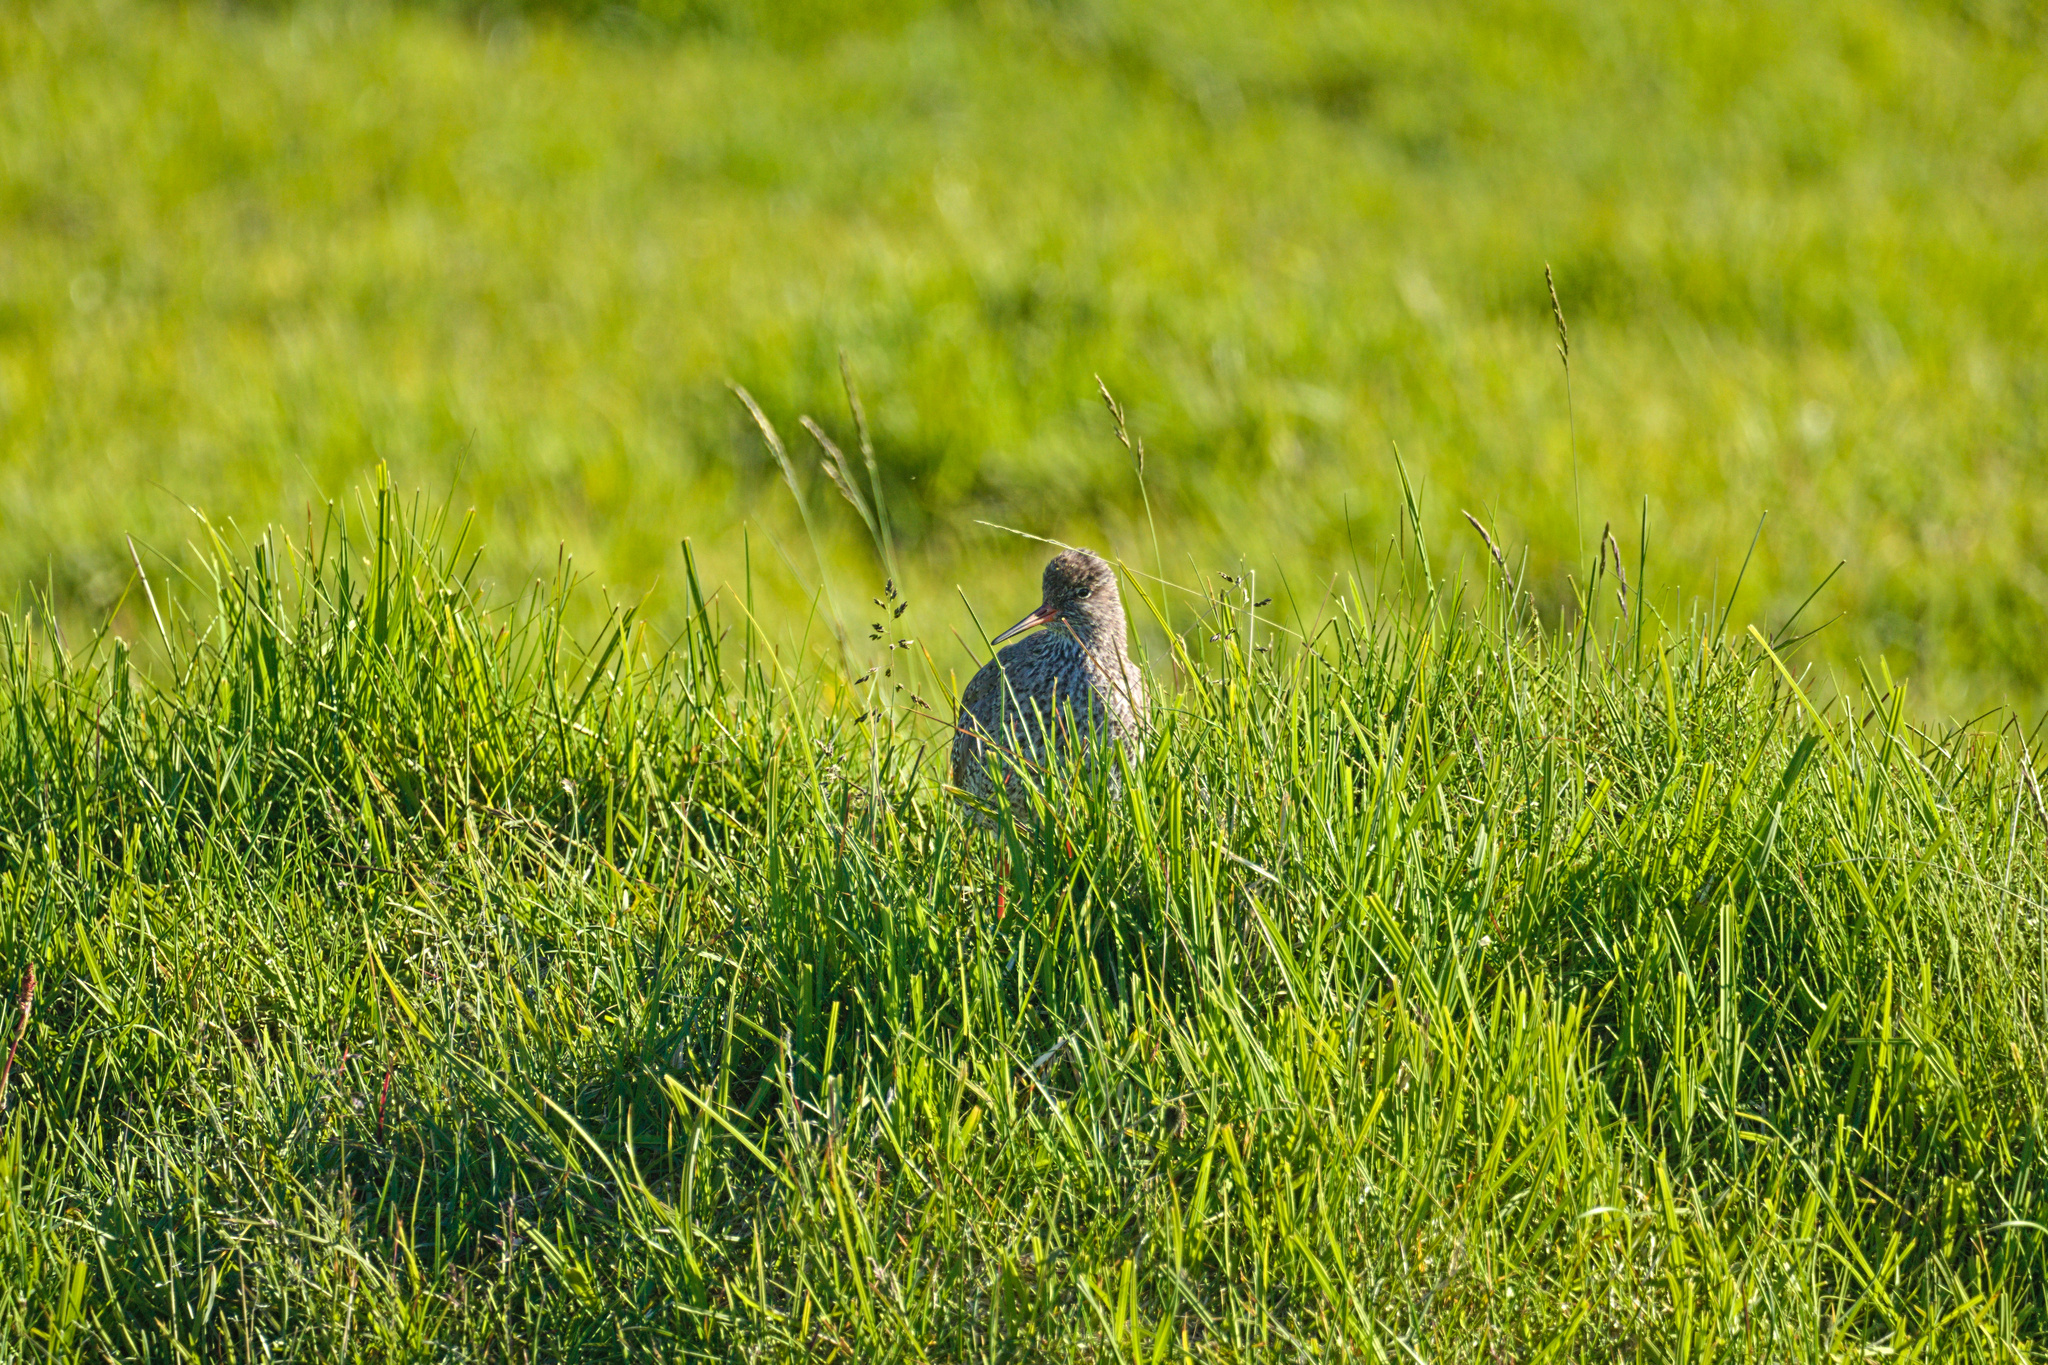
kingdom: Animalia
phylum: Chordata
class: Aves
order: Charadriiformes
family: Scolopacidae
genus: Tringa
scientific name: Tringa totanus
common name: Common redshank
